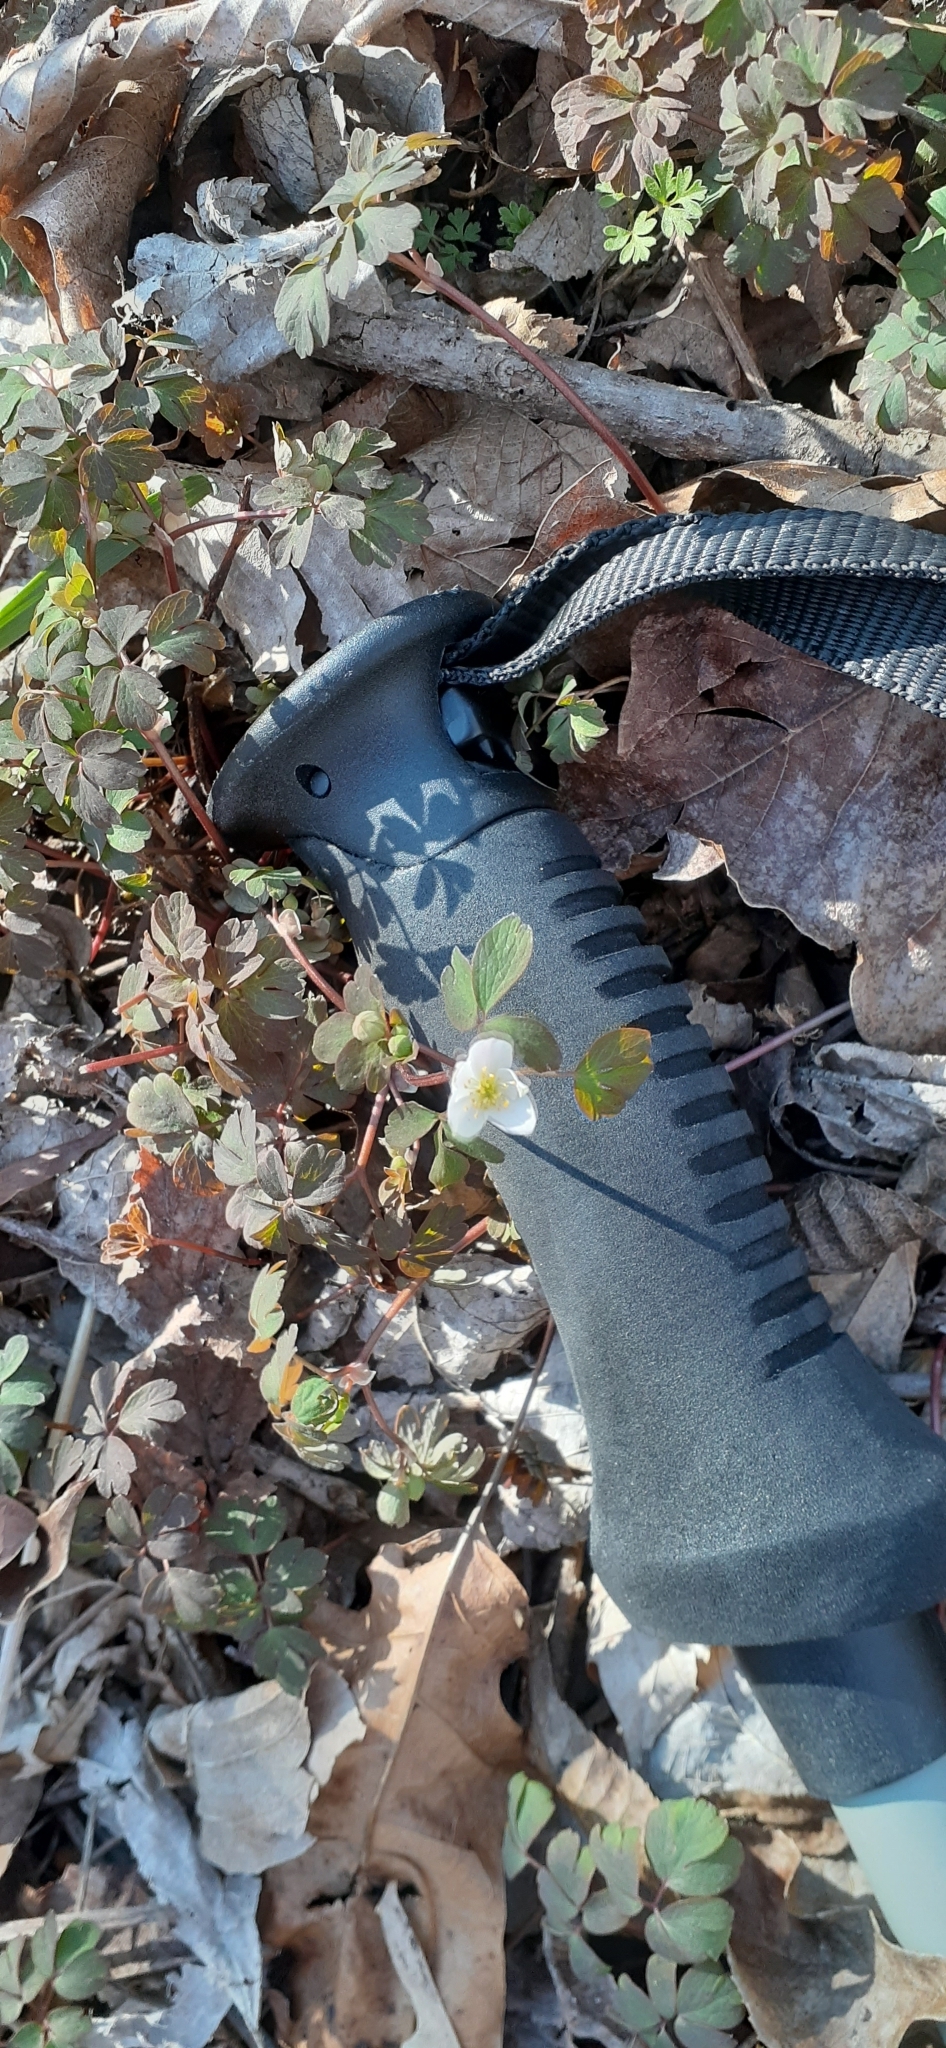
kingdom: Plantae
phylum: Tracheophyta
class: Magnoliopsida
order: Ranunculales
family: Ranunculaceae
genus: Enemion
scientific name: Enemion biternatum
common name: Eastern false rue-anemone
